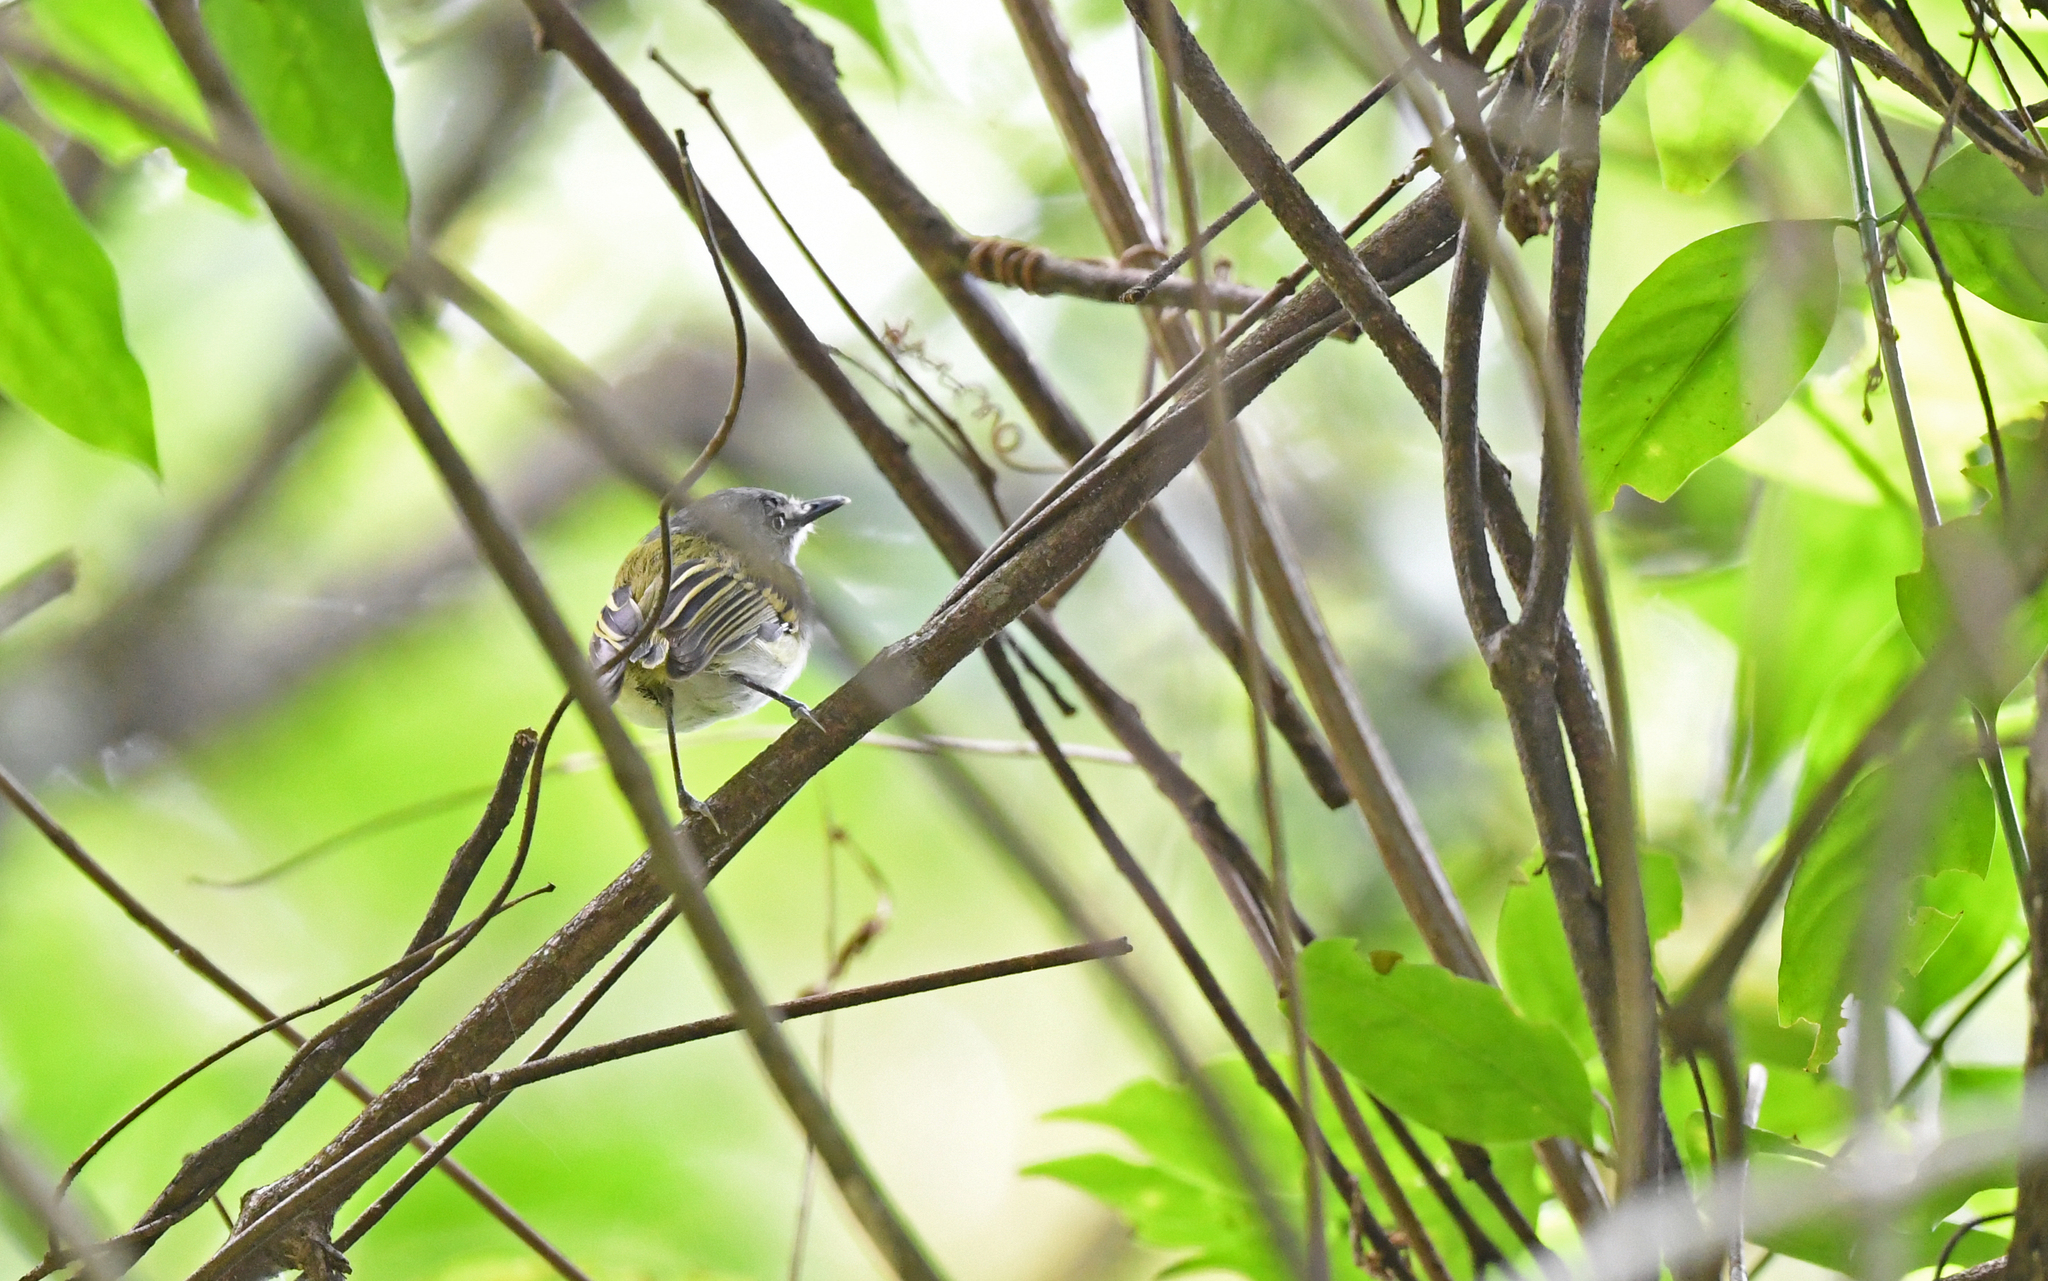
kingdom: Animalia
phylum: Chordata
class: Aves
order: Passeriformes
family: Tyrannidae
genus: Poecilotriccus
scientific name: Poecilotriccus sylvia
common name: Slate-headed tody-flycatcher
